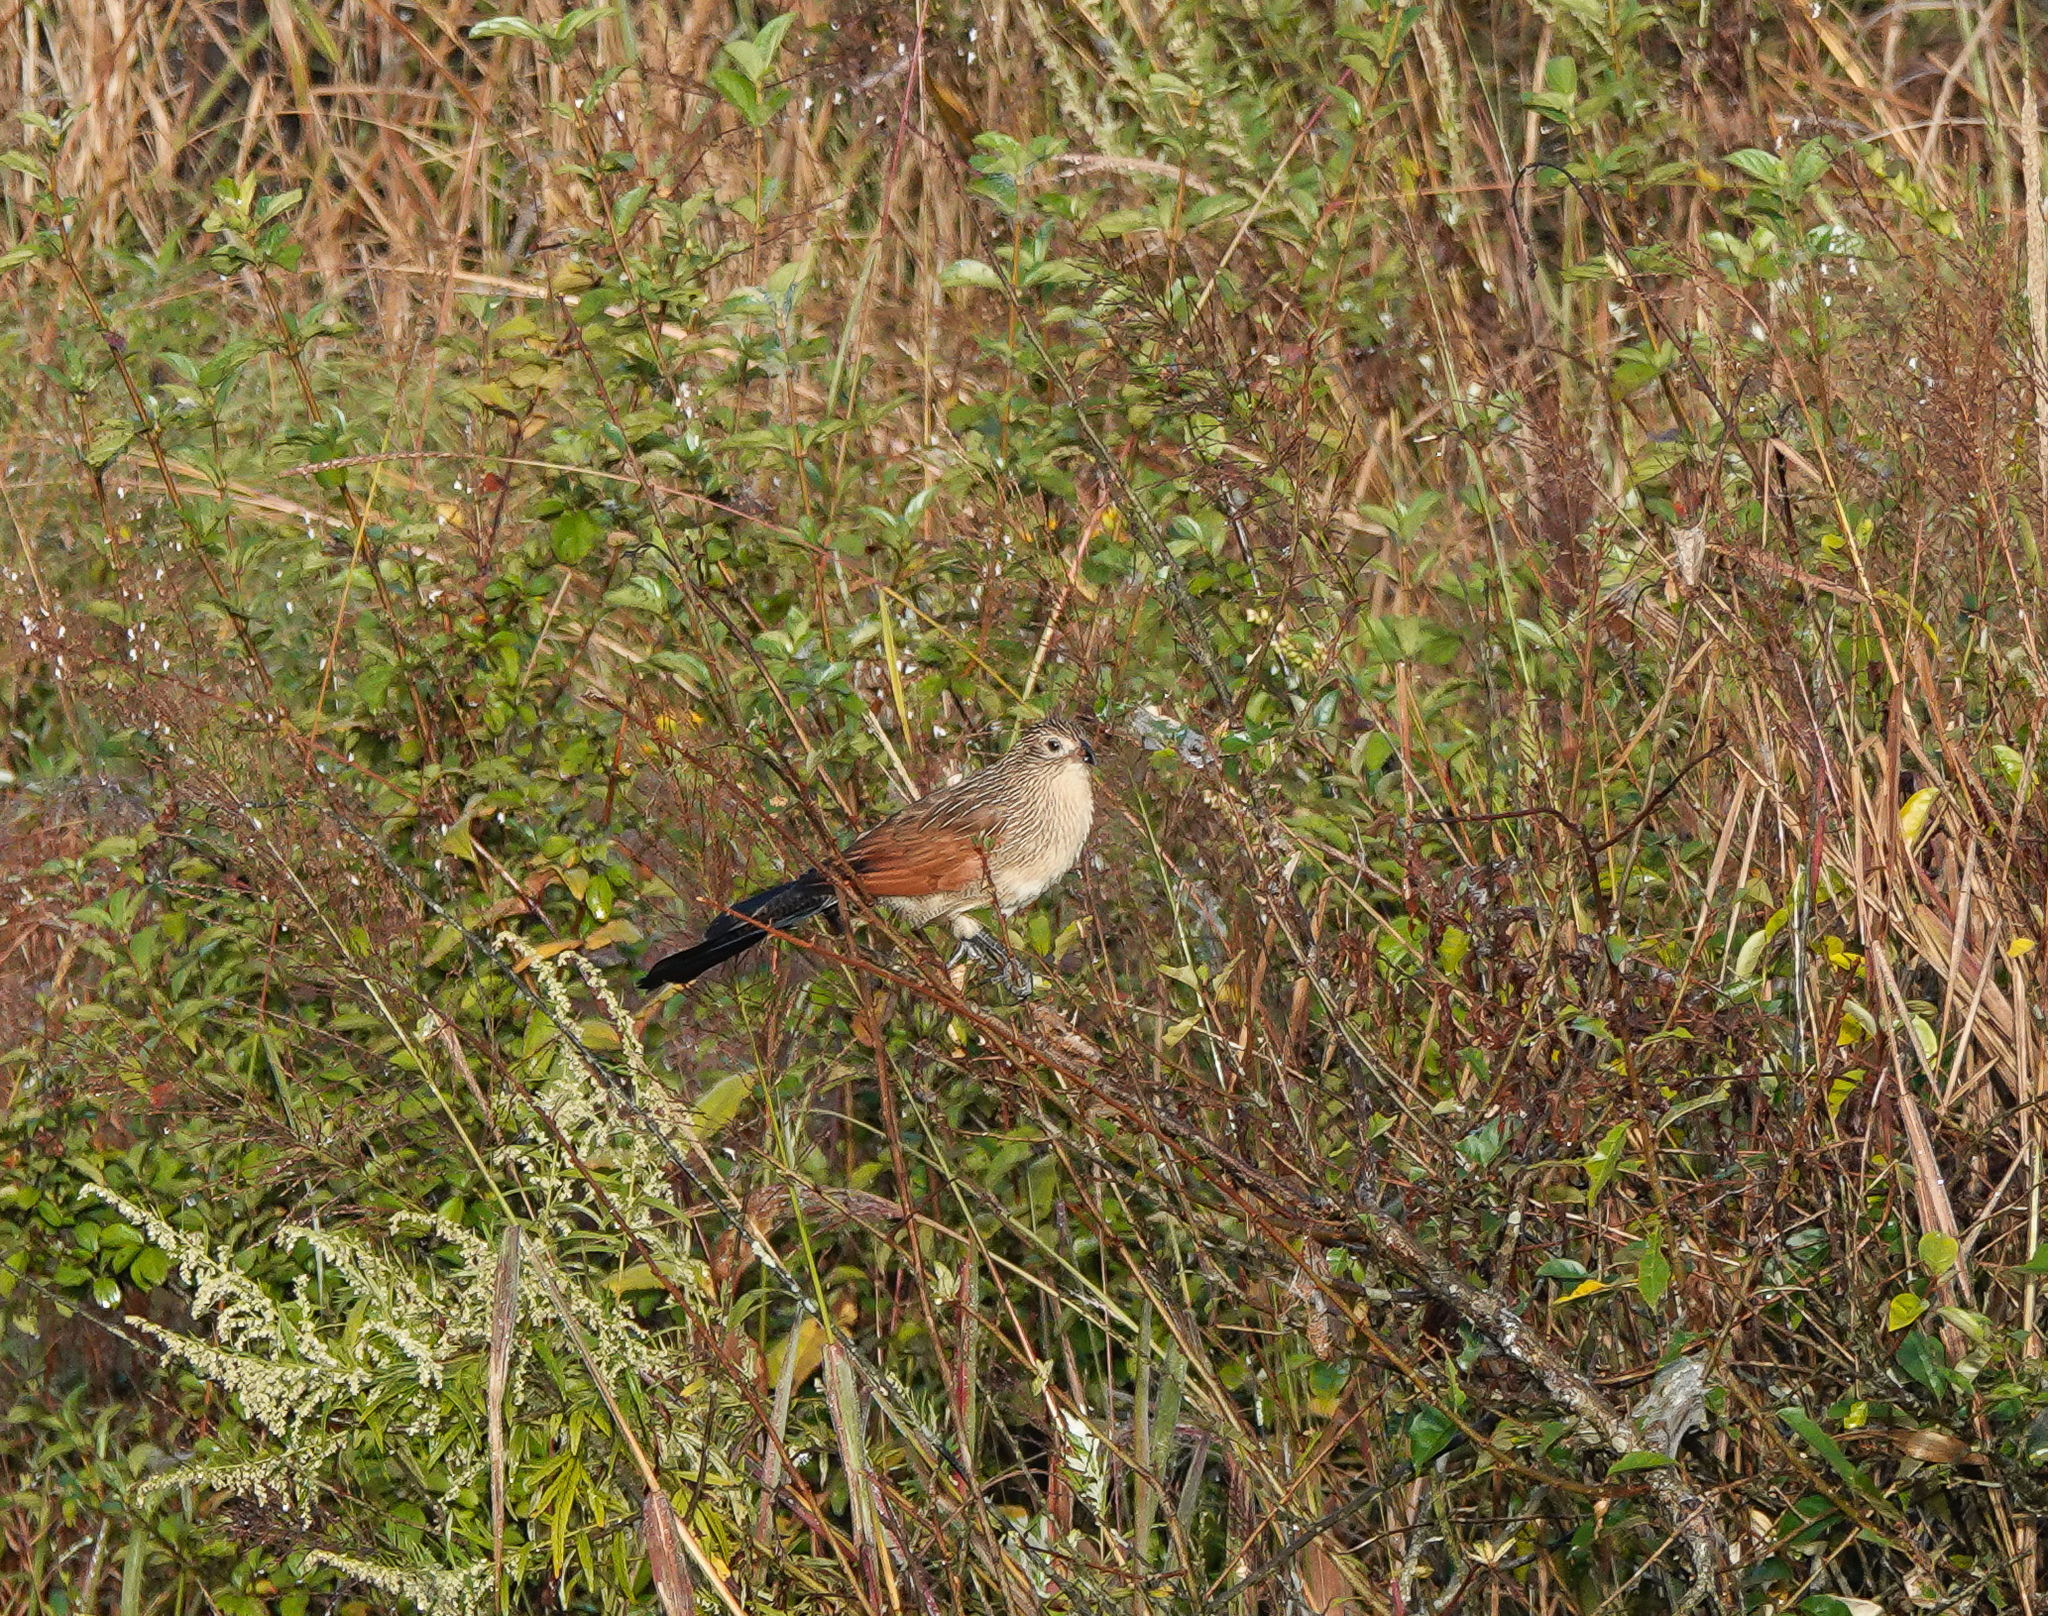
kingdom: Animalia
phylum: Chordata
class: Aves
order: Cuculiformes
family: Cuculidae
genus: Centropus
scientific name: Centropus bengalensis
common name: Lesser coucal
